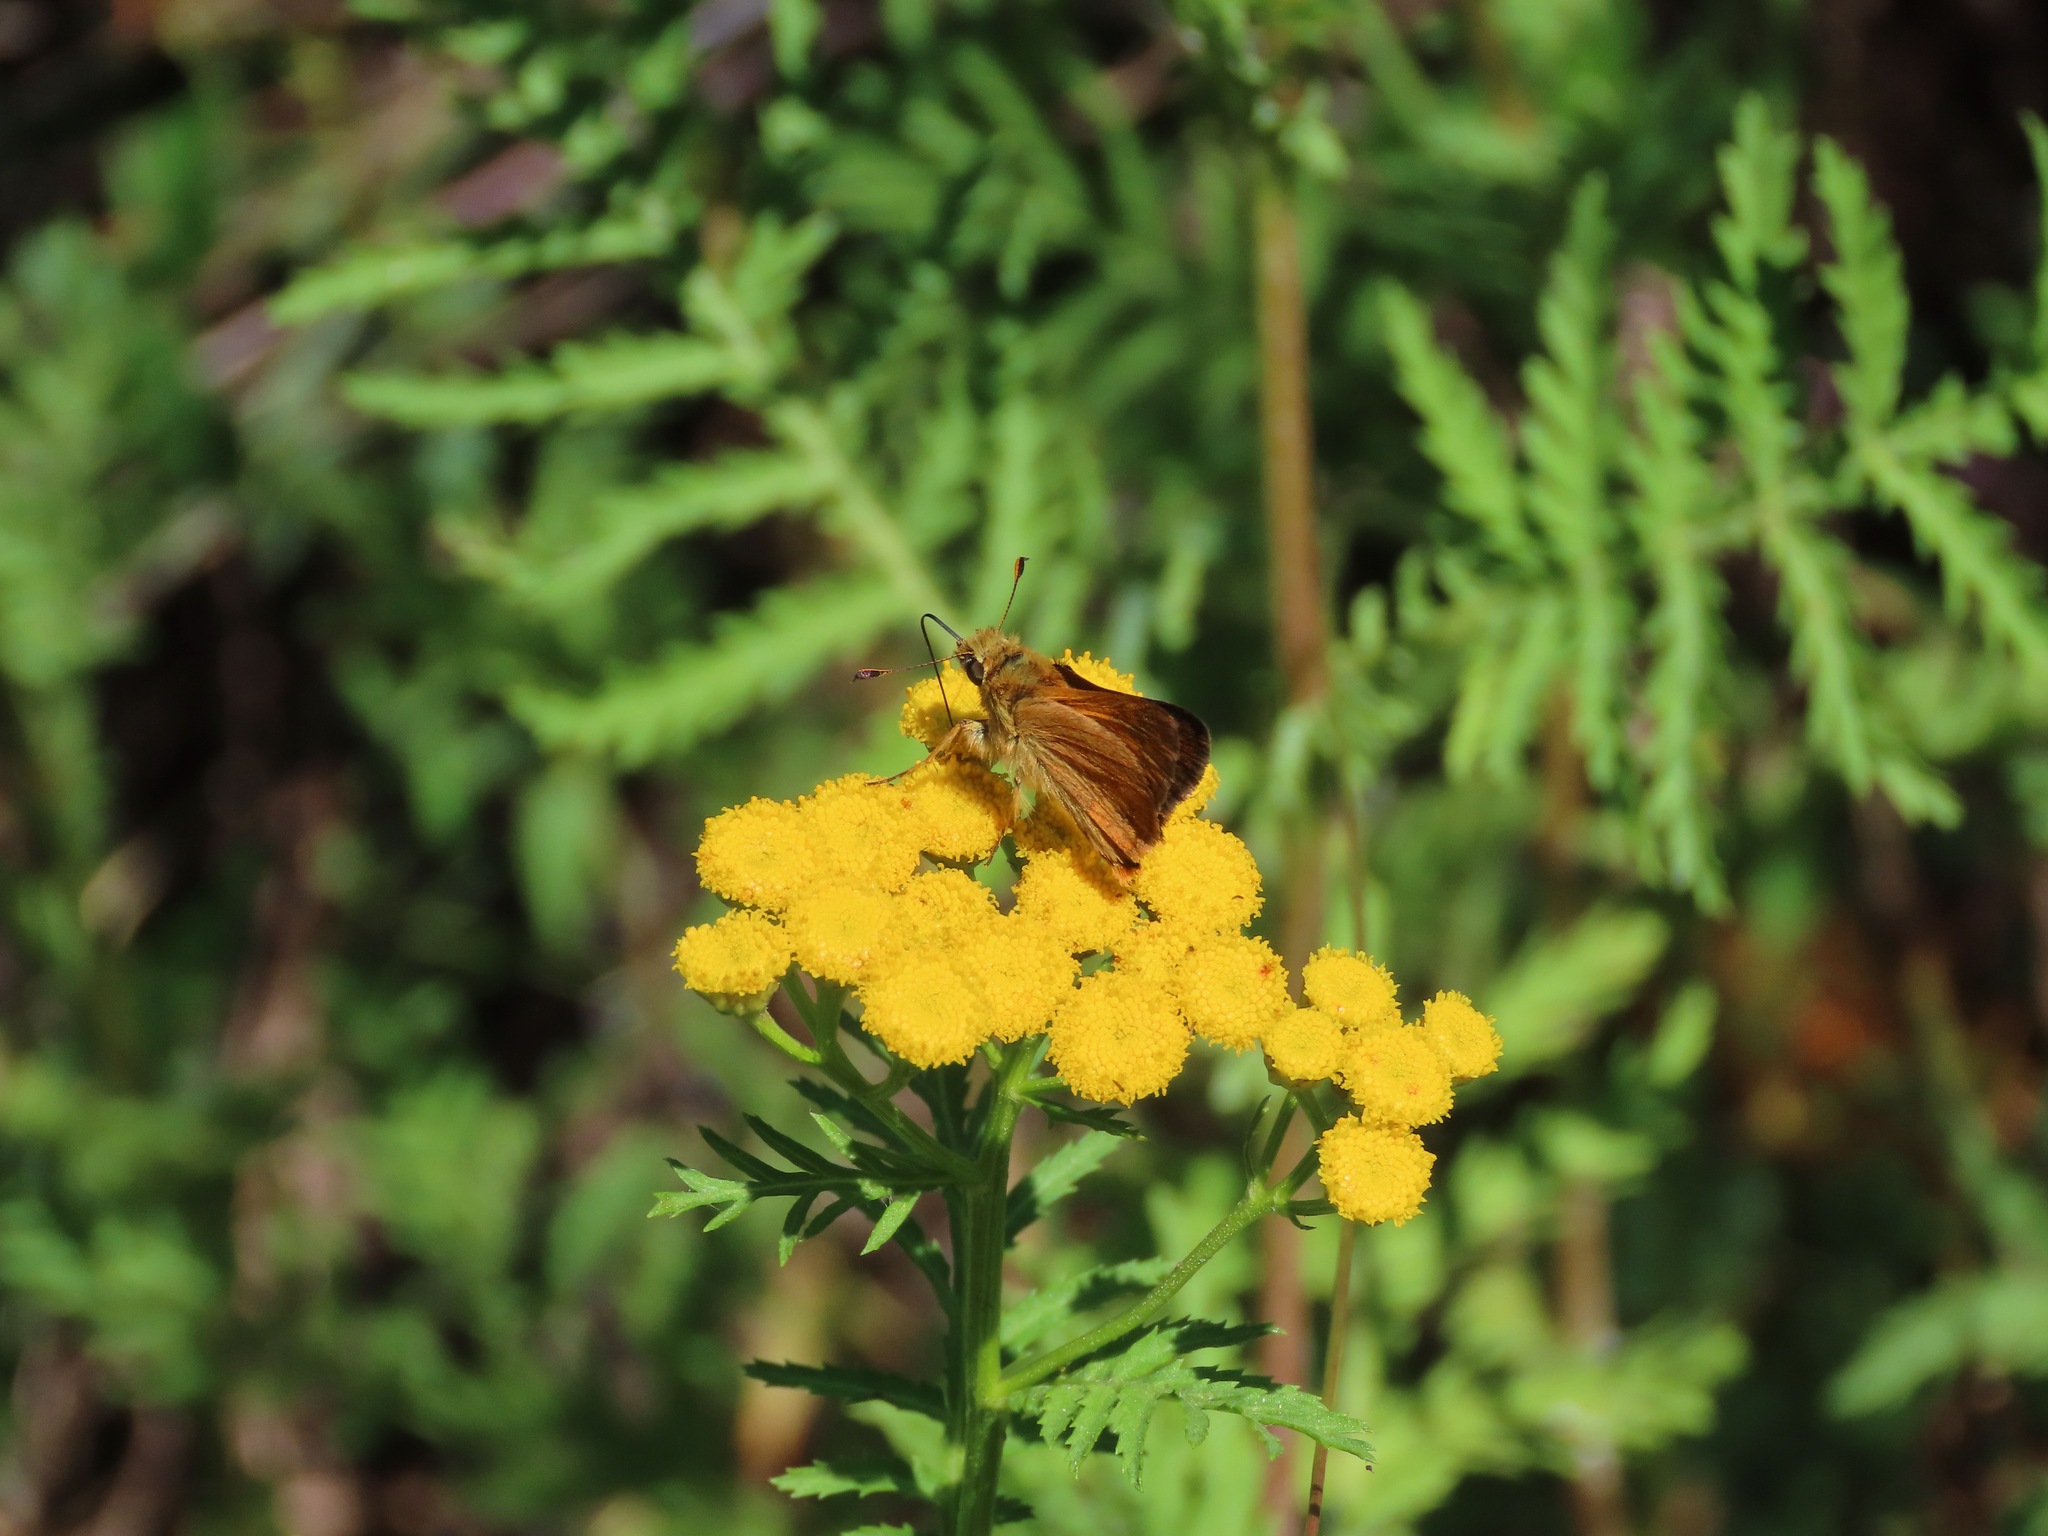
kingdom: Animalia
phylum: Arthropoda
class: Insecta
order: Lepidoptera
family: Hesperiidae
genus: Ochlodes
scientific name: Ochlodes sylvanoides
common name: Woodland skipper
